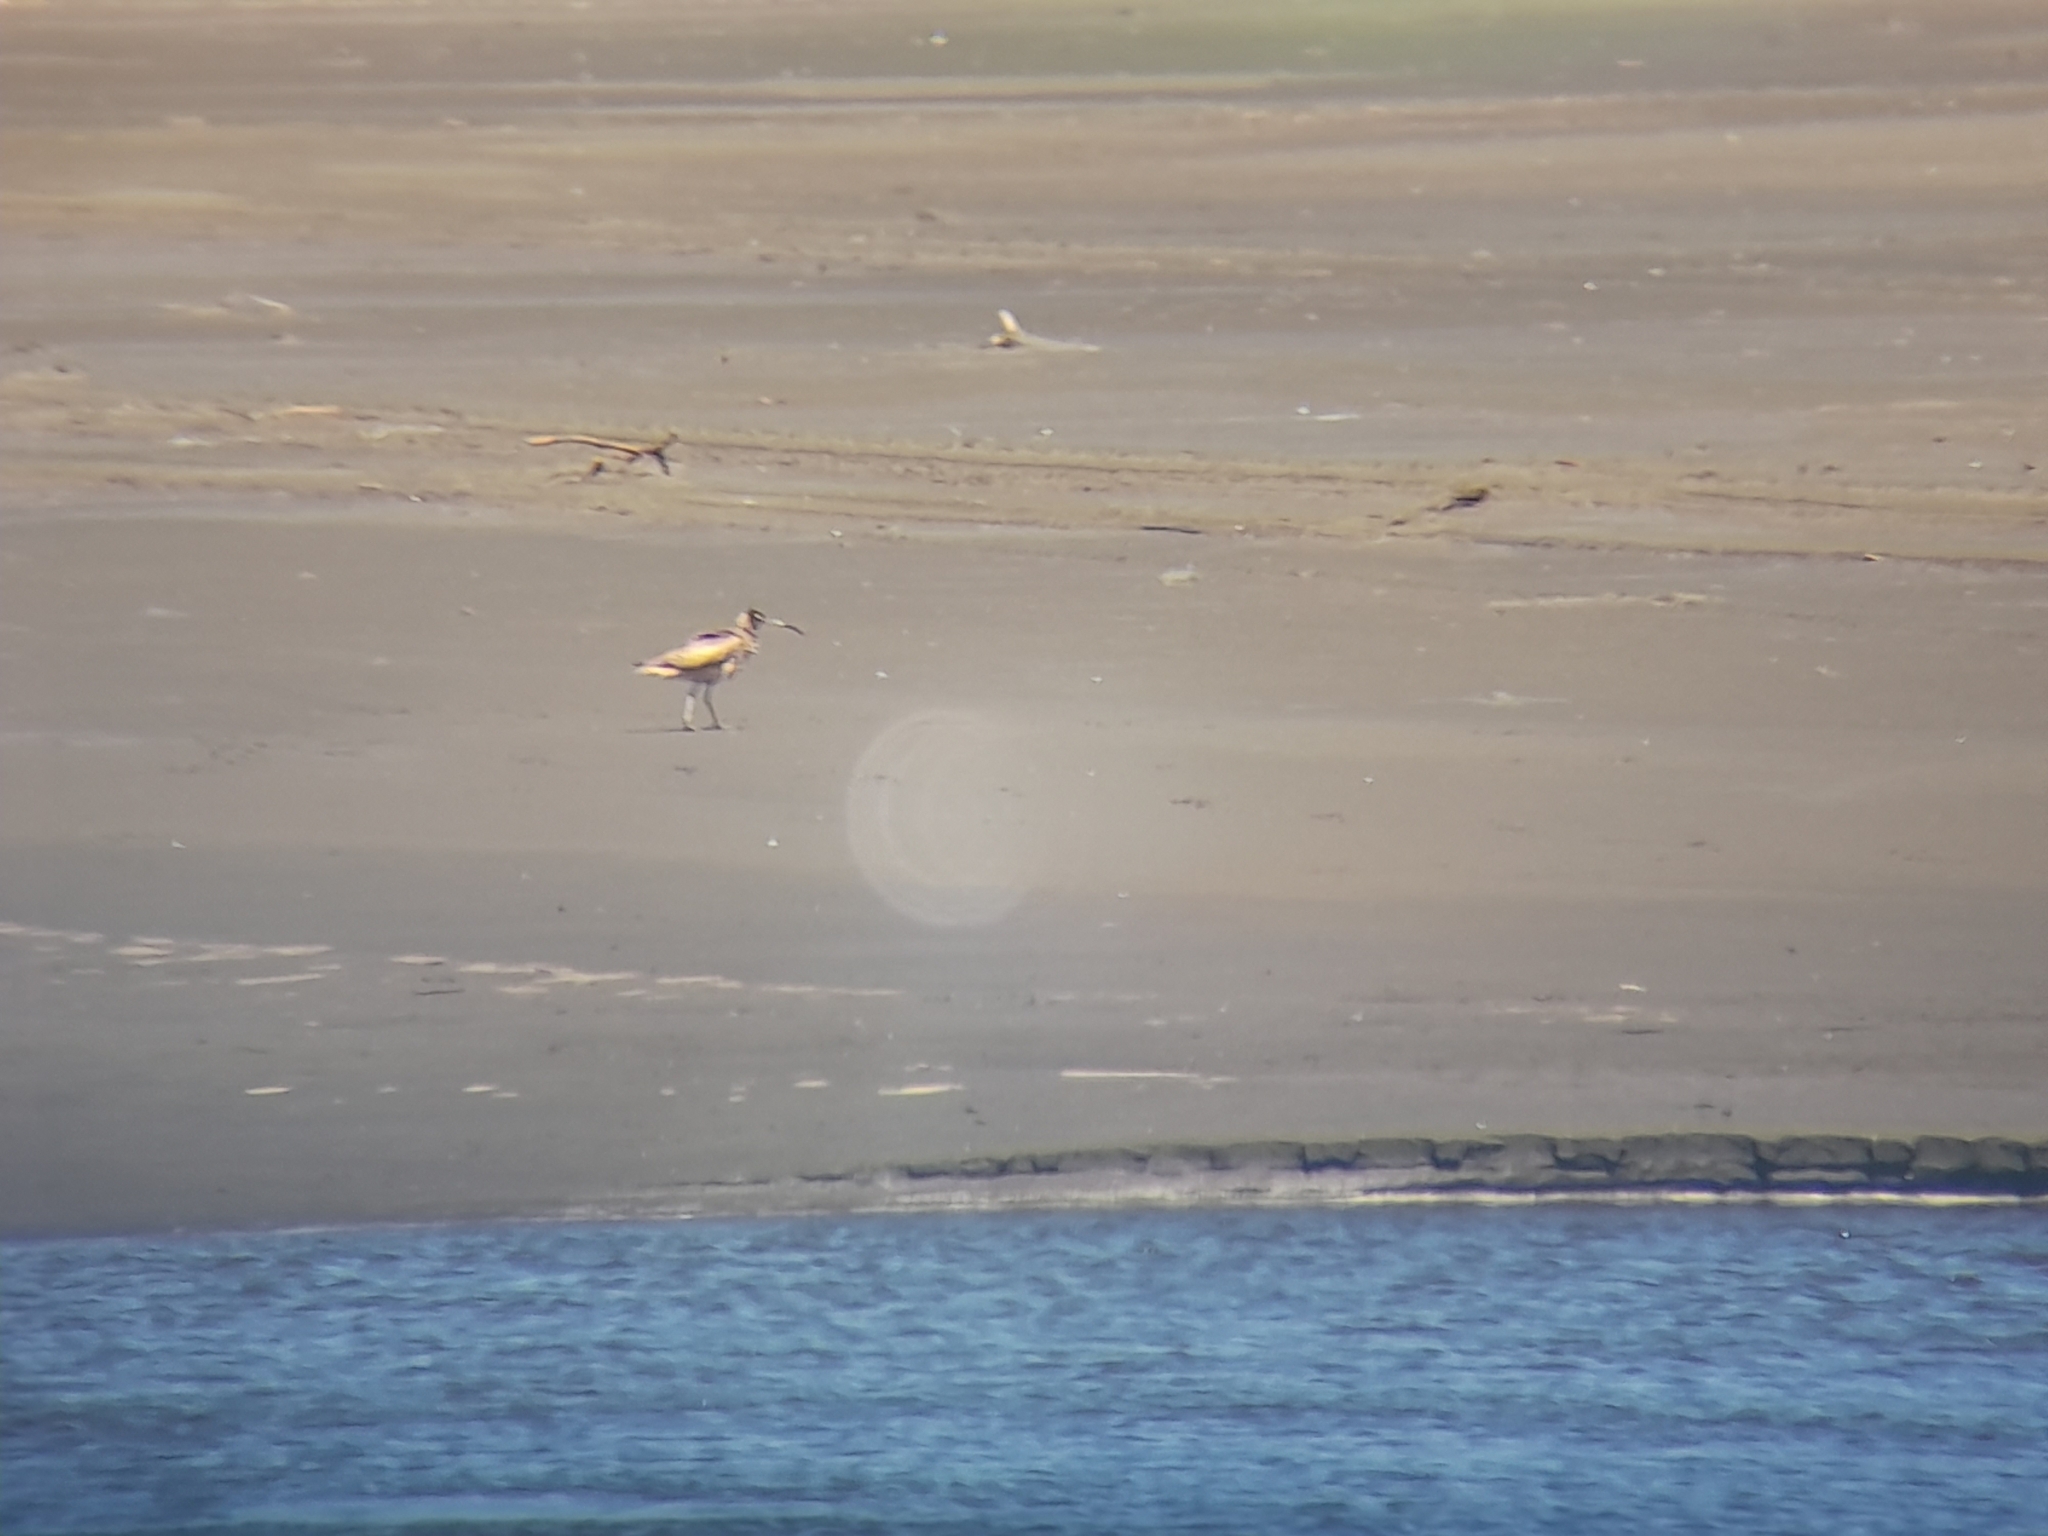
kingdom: Animalia
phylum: Chordata
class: Aves
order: Charadriiformes
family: Scolopacidae
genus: Numenius
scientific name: Numenius phaeopus
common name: Whimbrel
